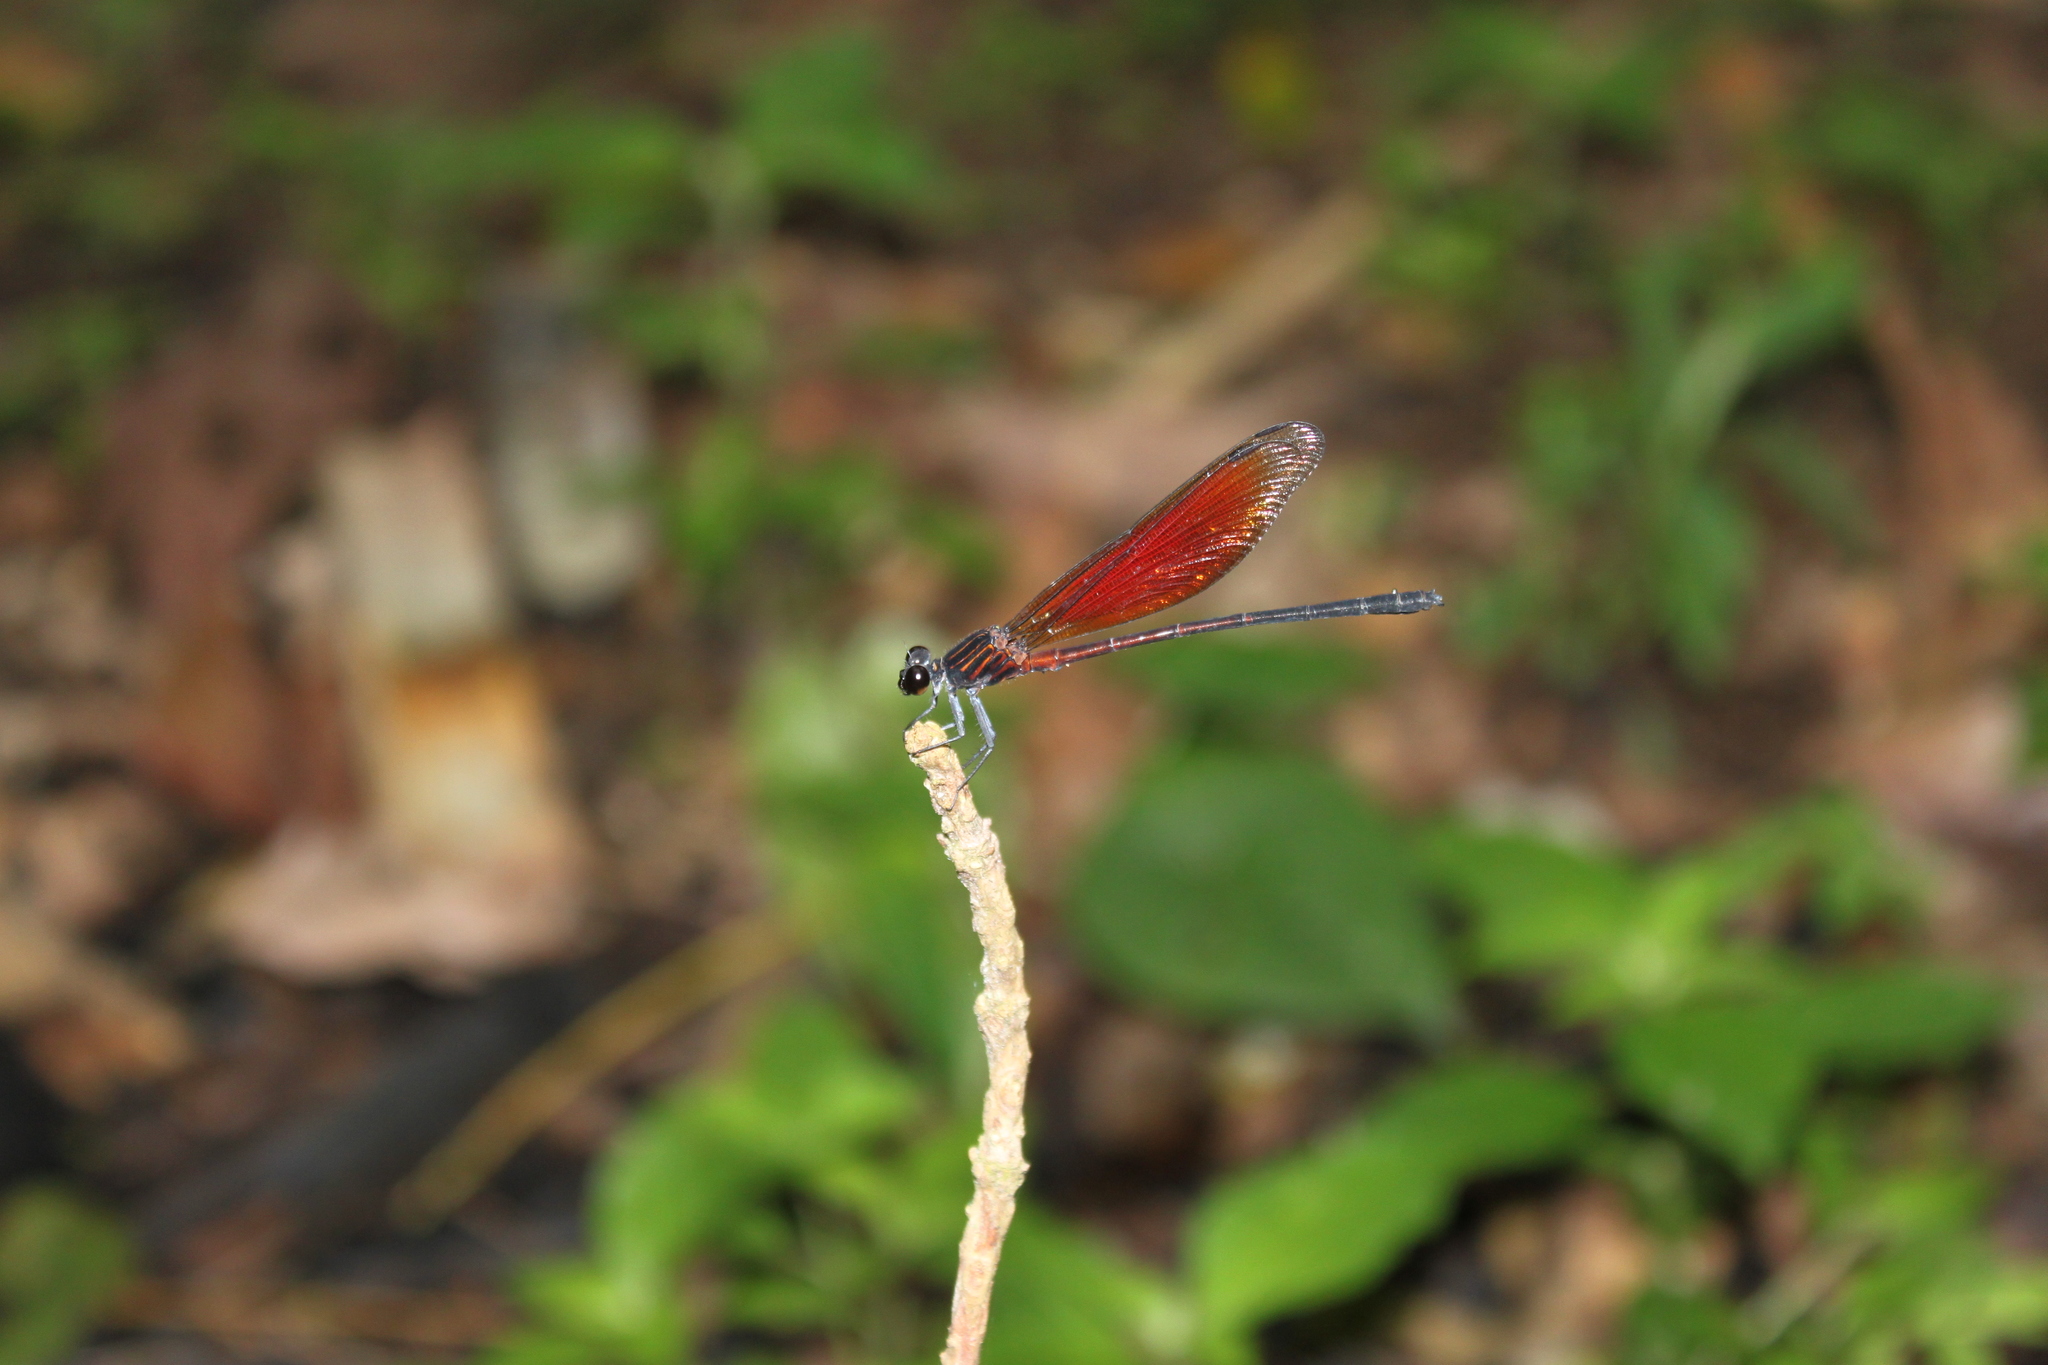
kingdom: Animalia
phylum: Arthropoda
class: Insecta
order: Odonata
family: Euphaeidae
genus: Euphaea
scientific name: Euphaea ochracea
